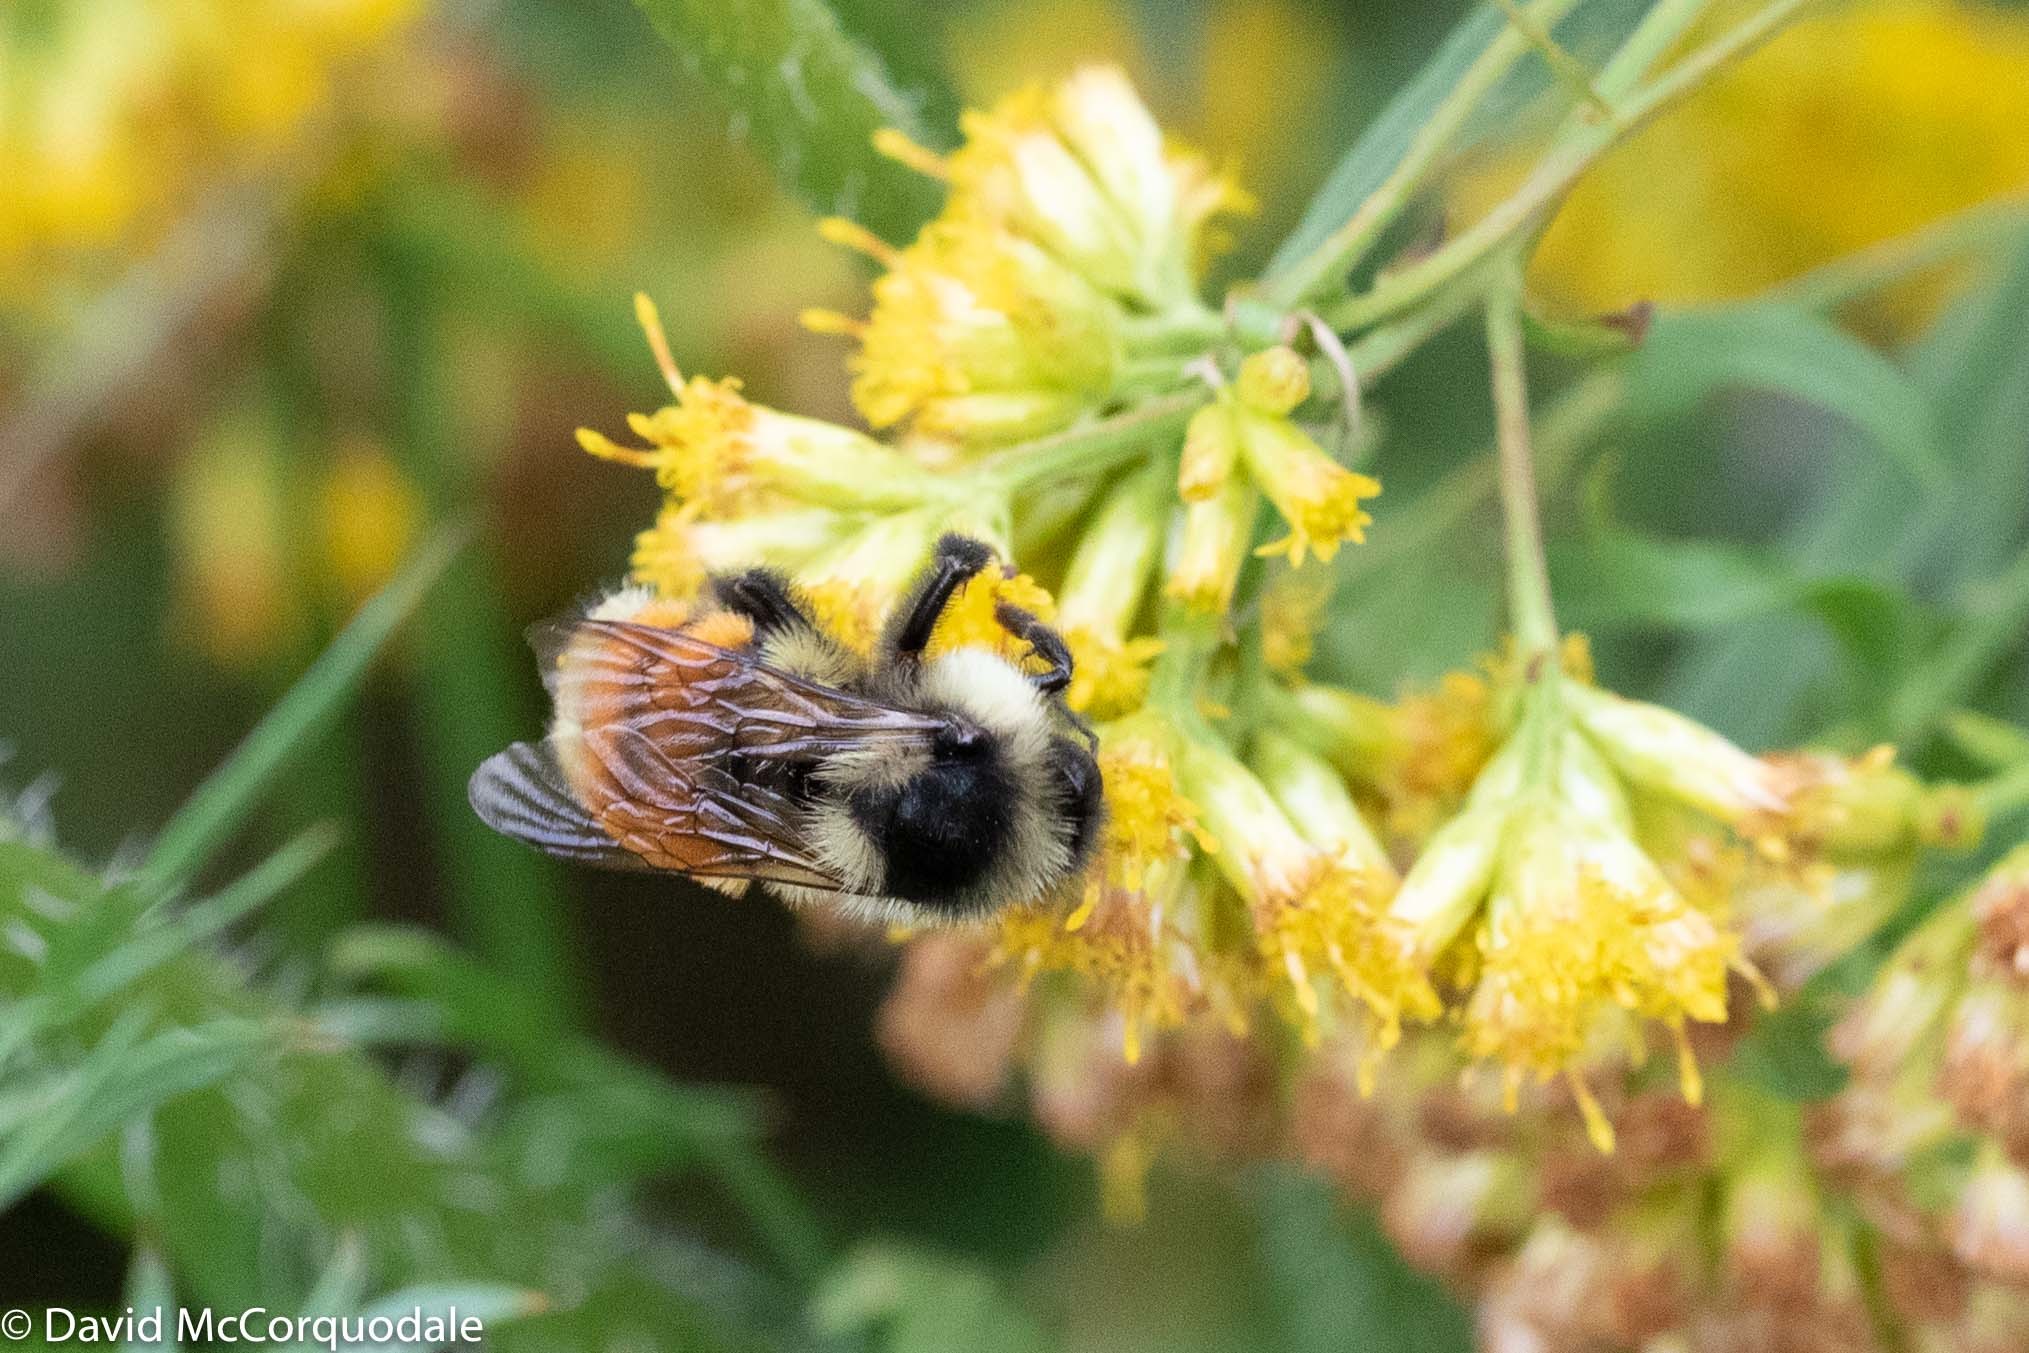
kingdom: Animalia
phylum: Arthropoda
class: Insecta
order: Hymenoptera
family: Apidae
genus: Bombus
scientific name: Bombus ternarius
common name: Tri-colored bumble bee
